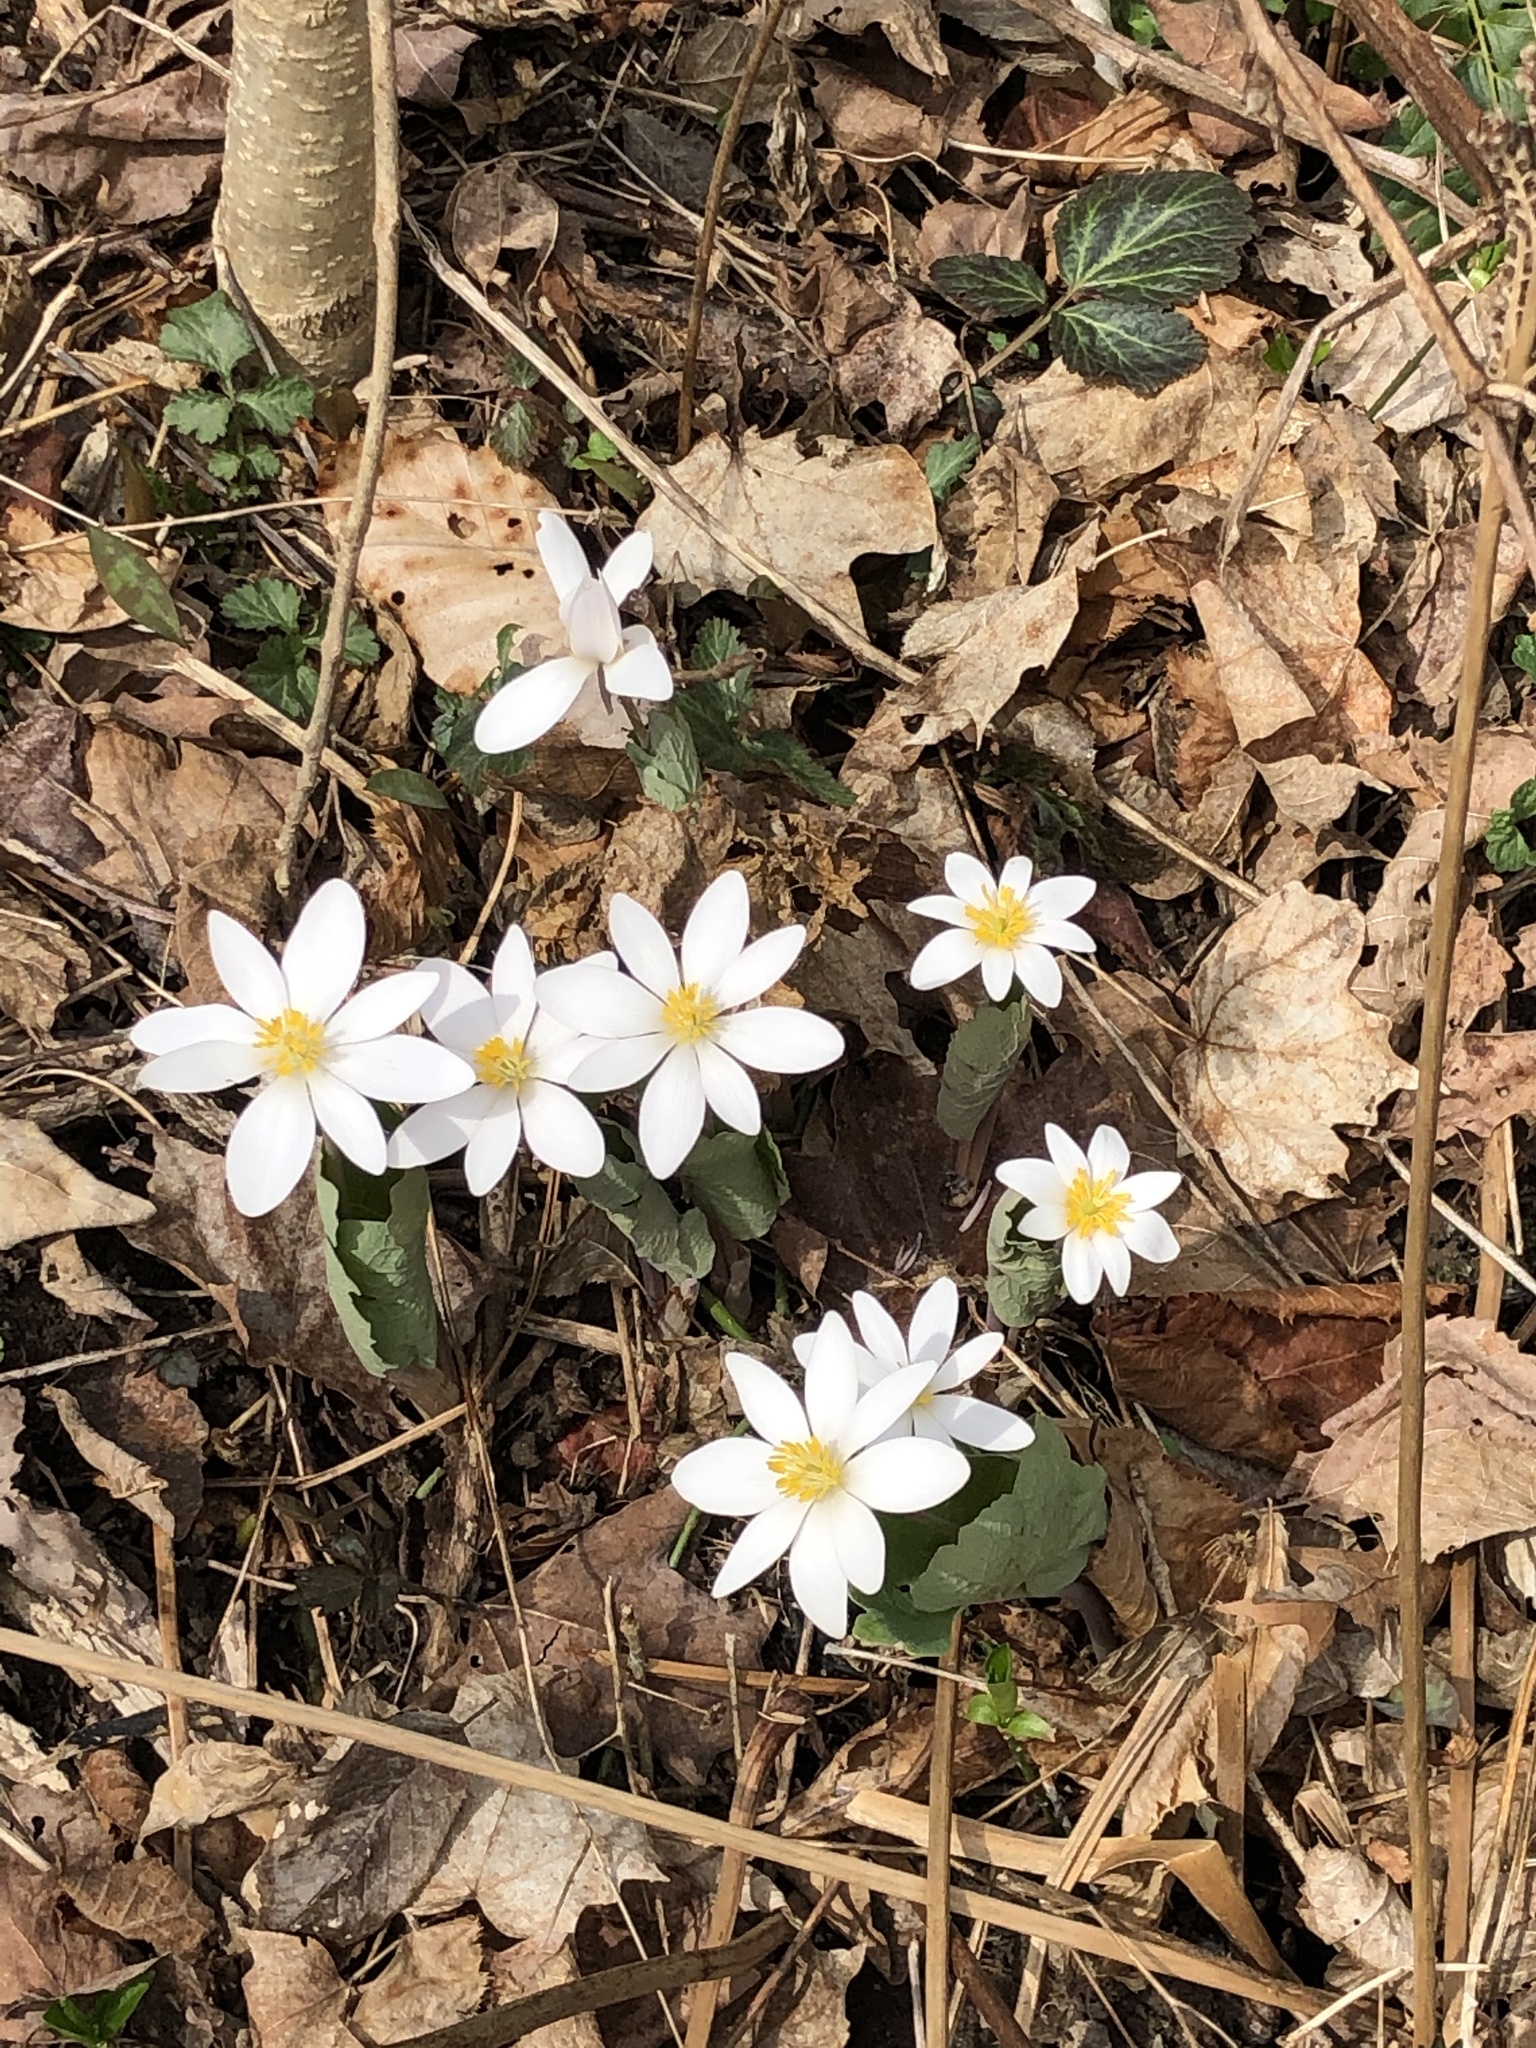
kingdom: Plantae
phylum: Tracheophyta
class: Magnoliopsida
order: Ranunculales
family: Papaveraceae
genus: Sanguinaria
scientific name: Sanguinaria canadensis
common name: Bloodroot
